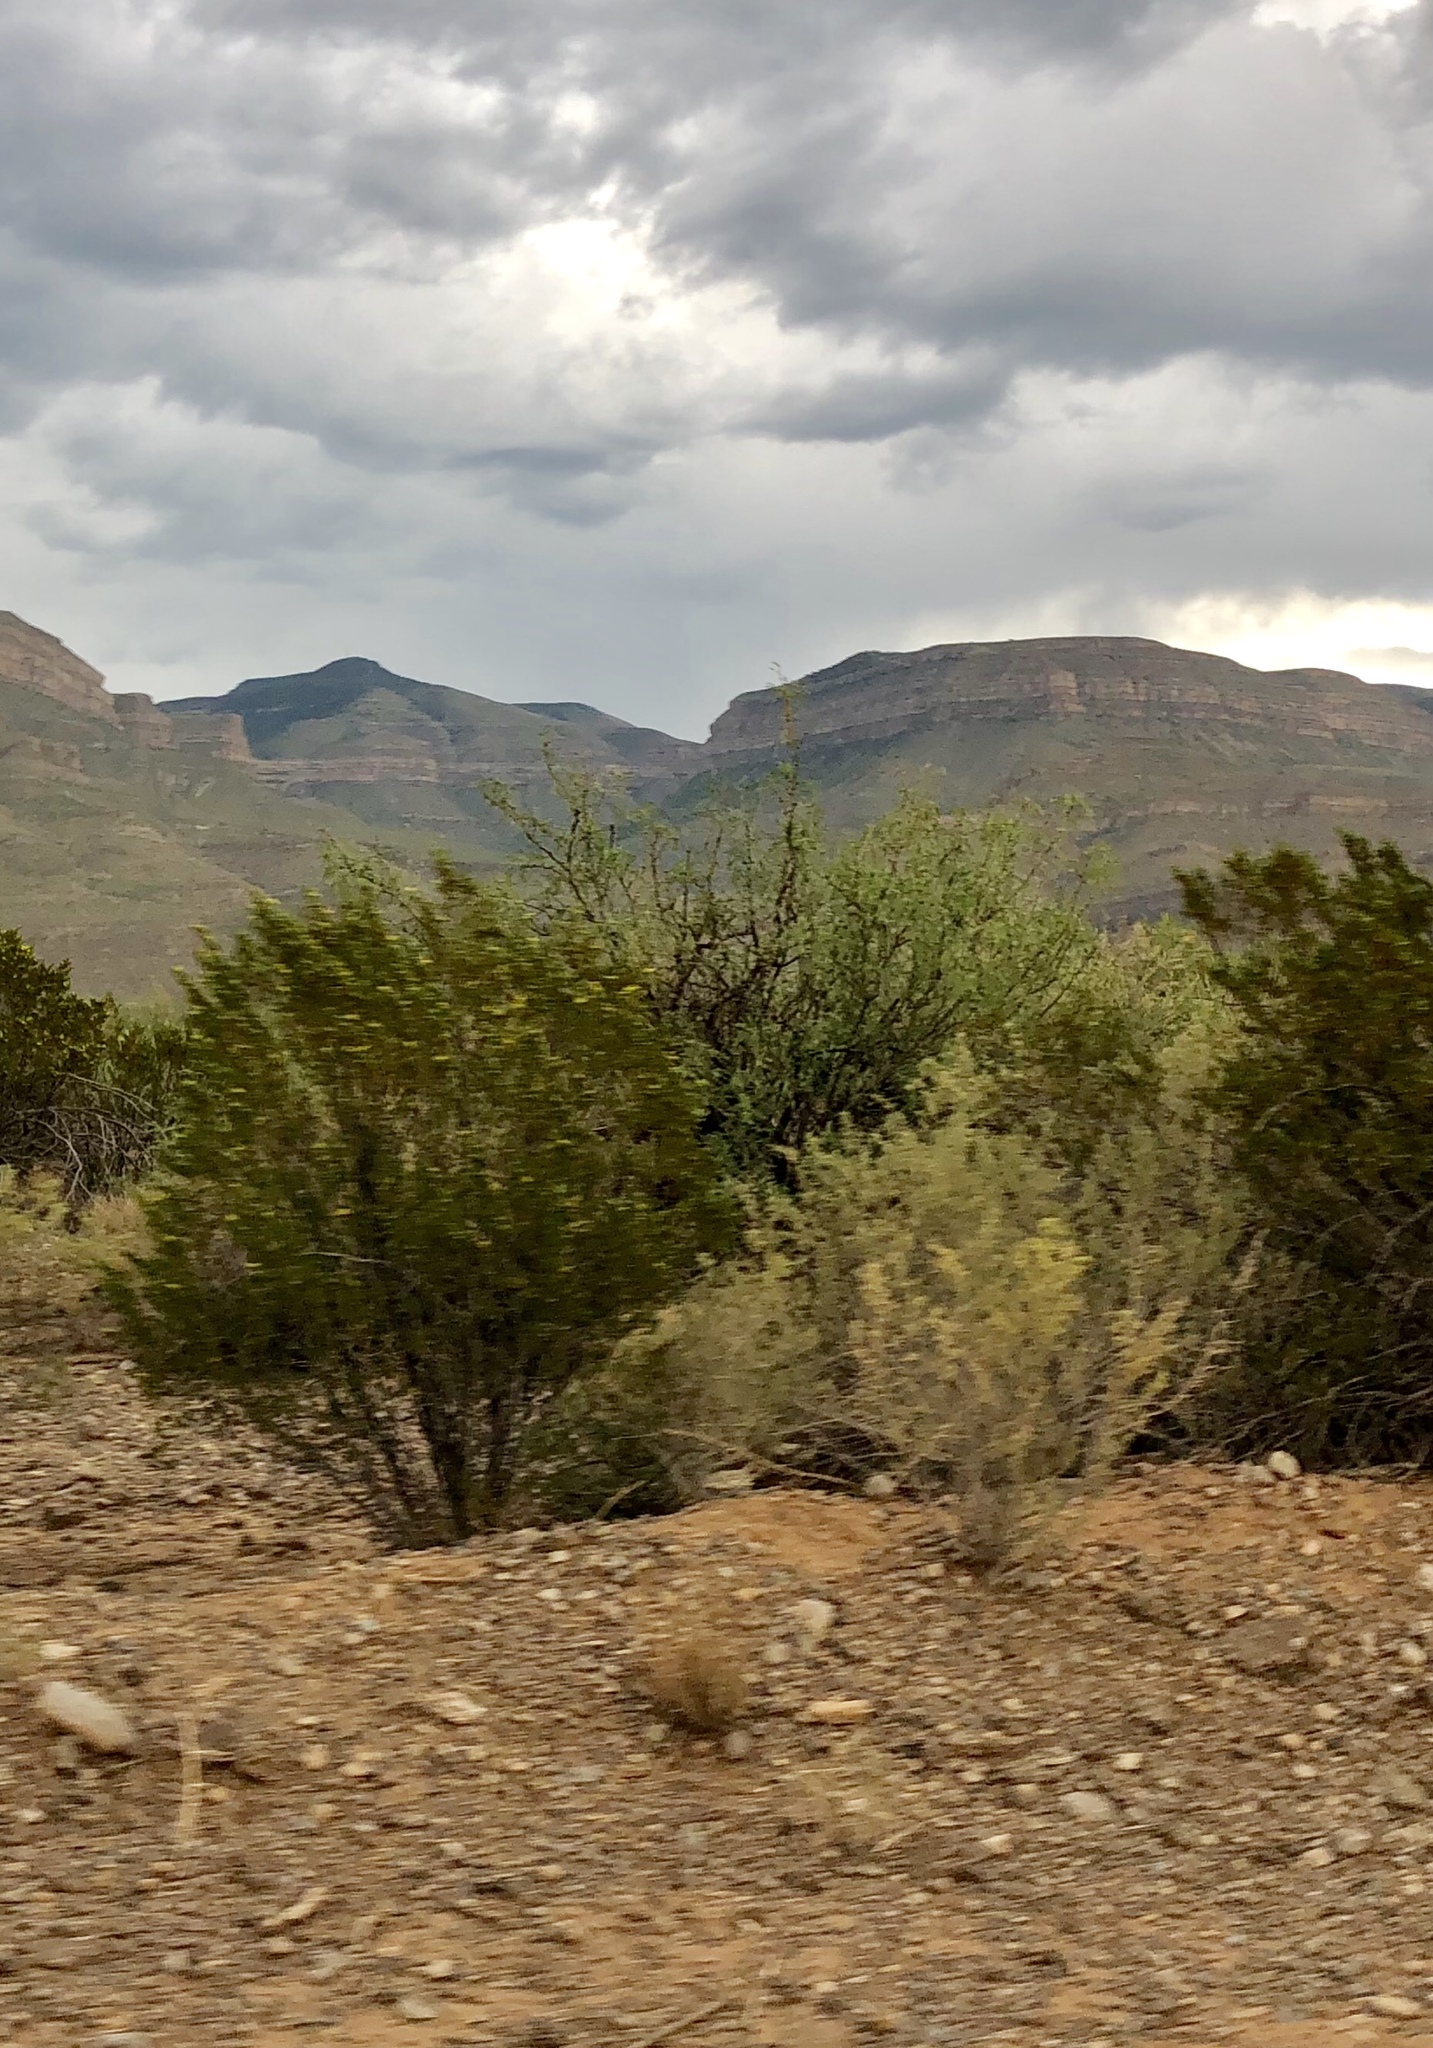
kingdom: Plantae
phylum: Tracheophyta
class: Magnoliopsida
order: Zygophyllales
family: Zygophyllaceae
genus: Larrea
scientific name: Larrea tridentata
